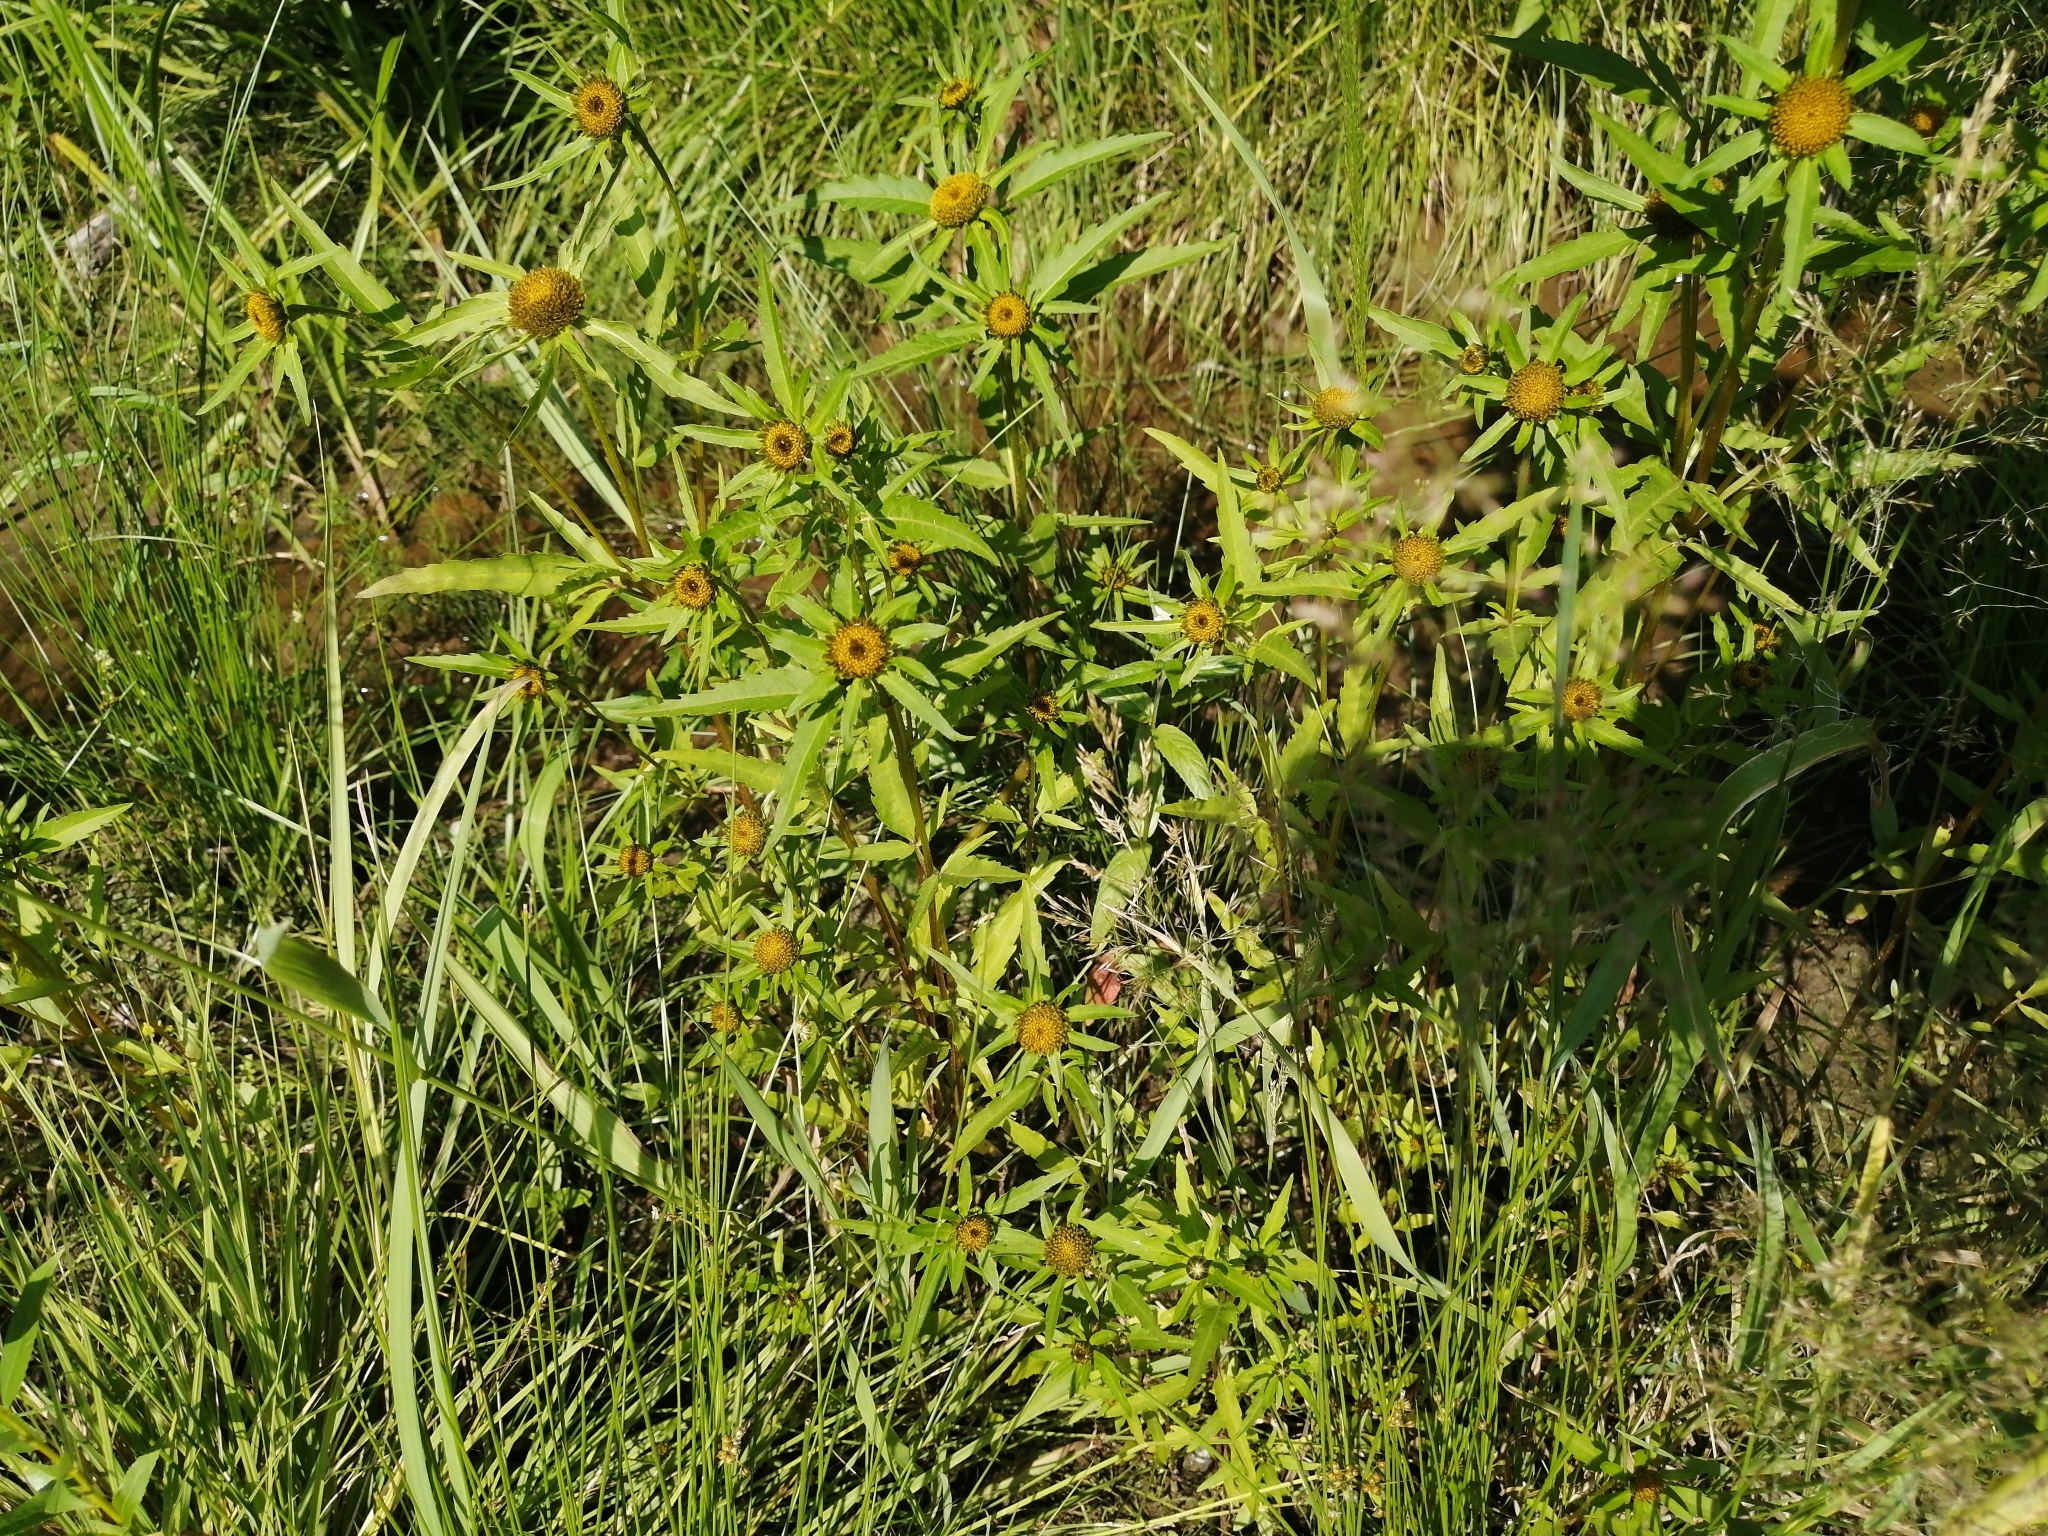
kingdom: Plantae
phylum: Tracheophyta
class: Magnoliopsida
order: Asterales
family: Asteraceae
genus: Bidens
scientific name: Bidens tripartita
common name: Trifid bur-marigold
